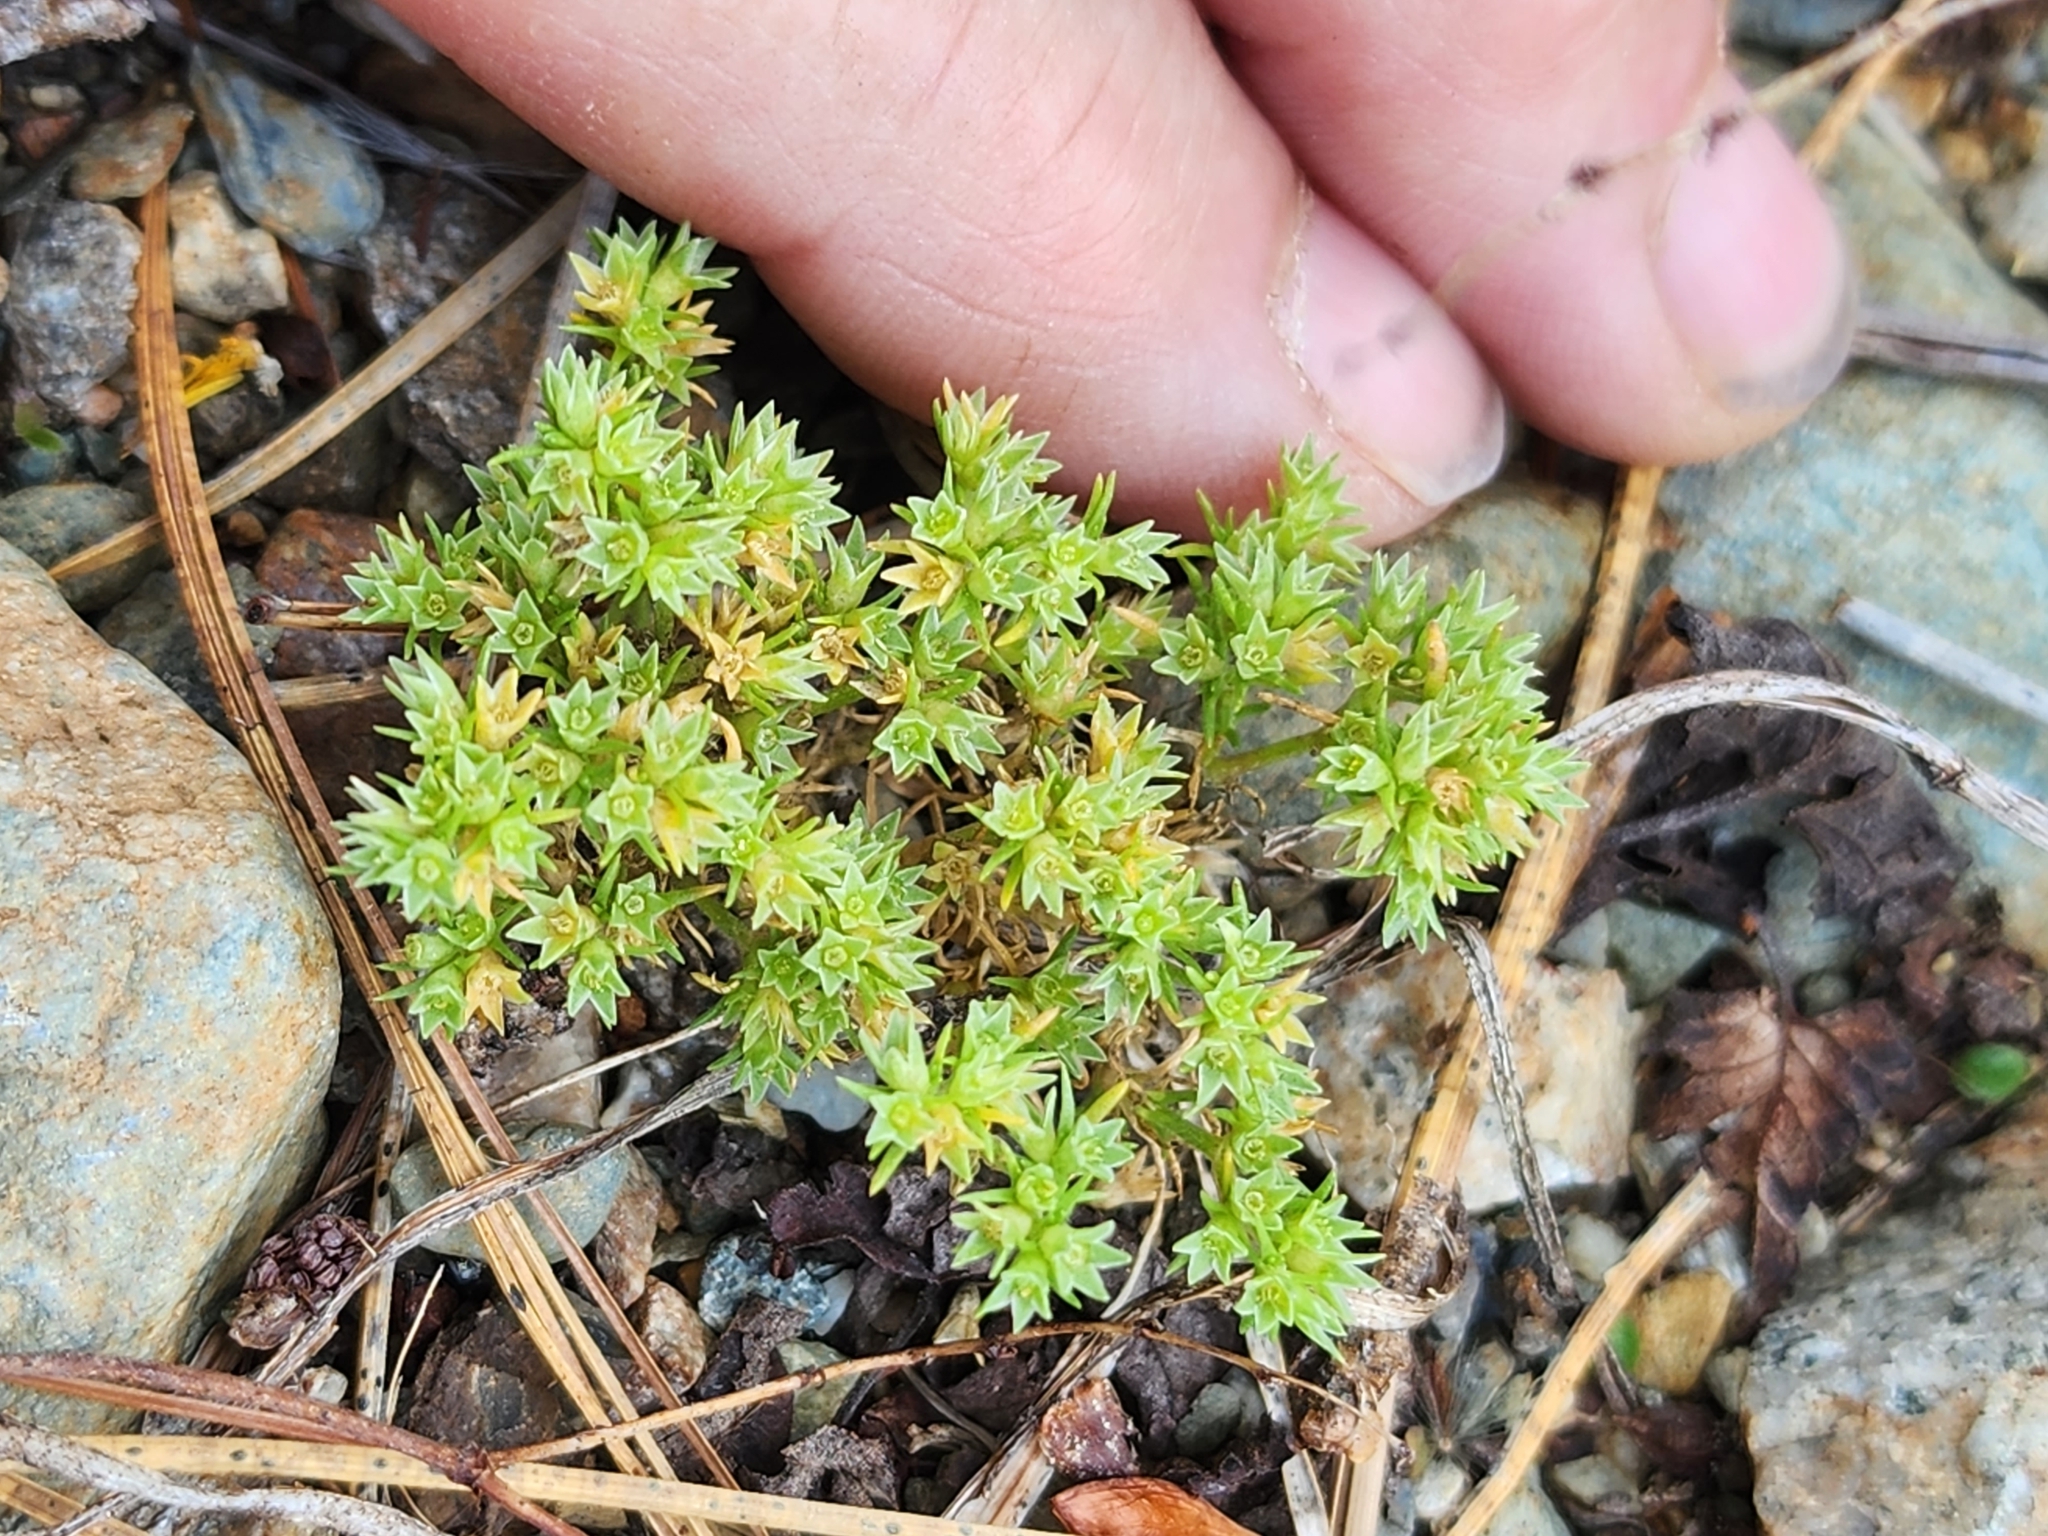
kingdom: Plantae
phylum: Tracheophyta
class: Magnoliopsida
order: Caryophyllales
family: Caryophyllaceae
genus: Scleranthus
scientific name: Scleranthus annuus
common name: Annual knawel
